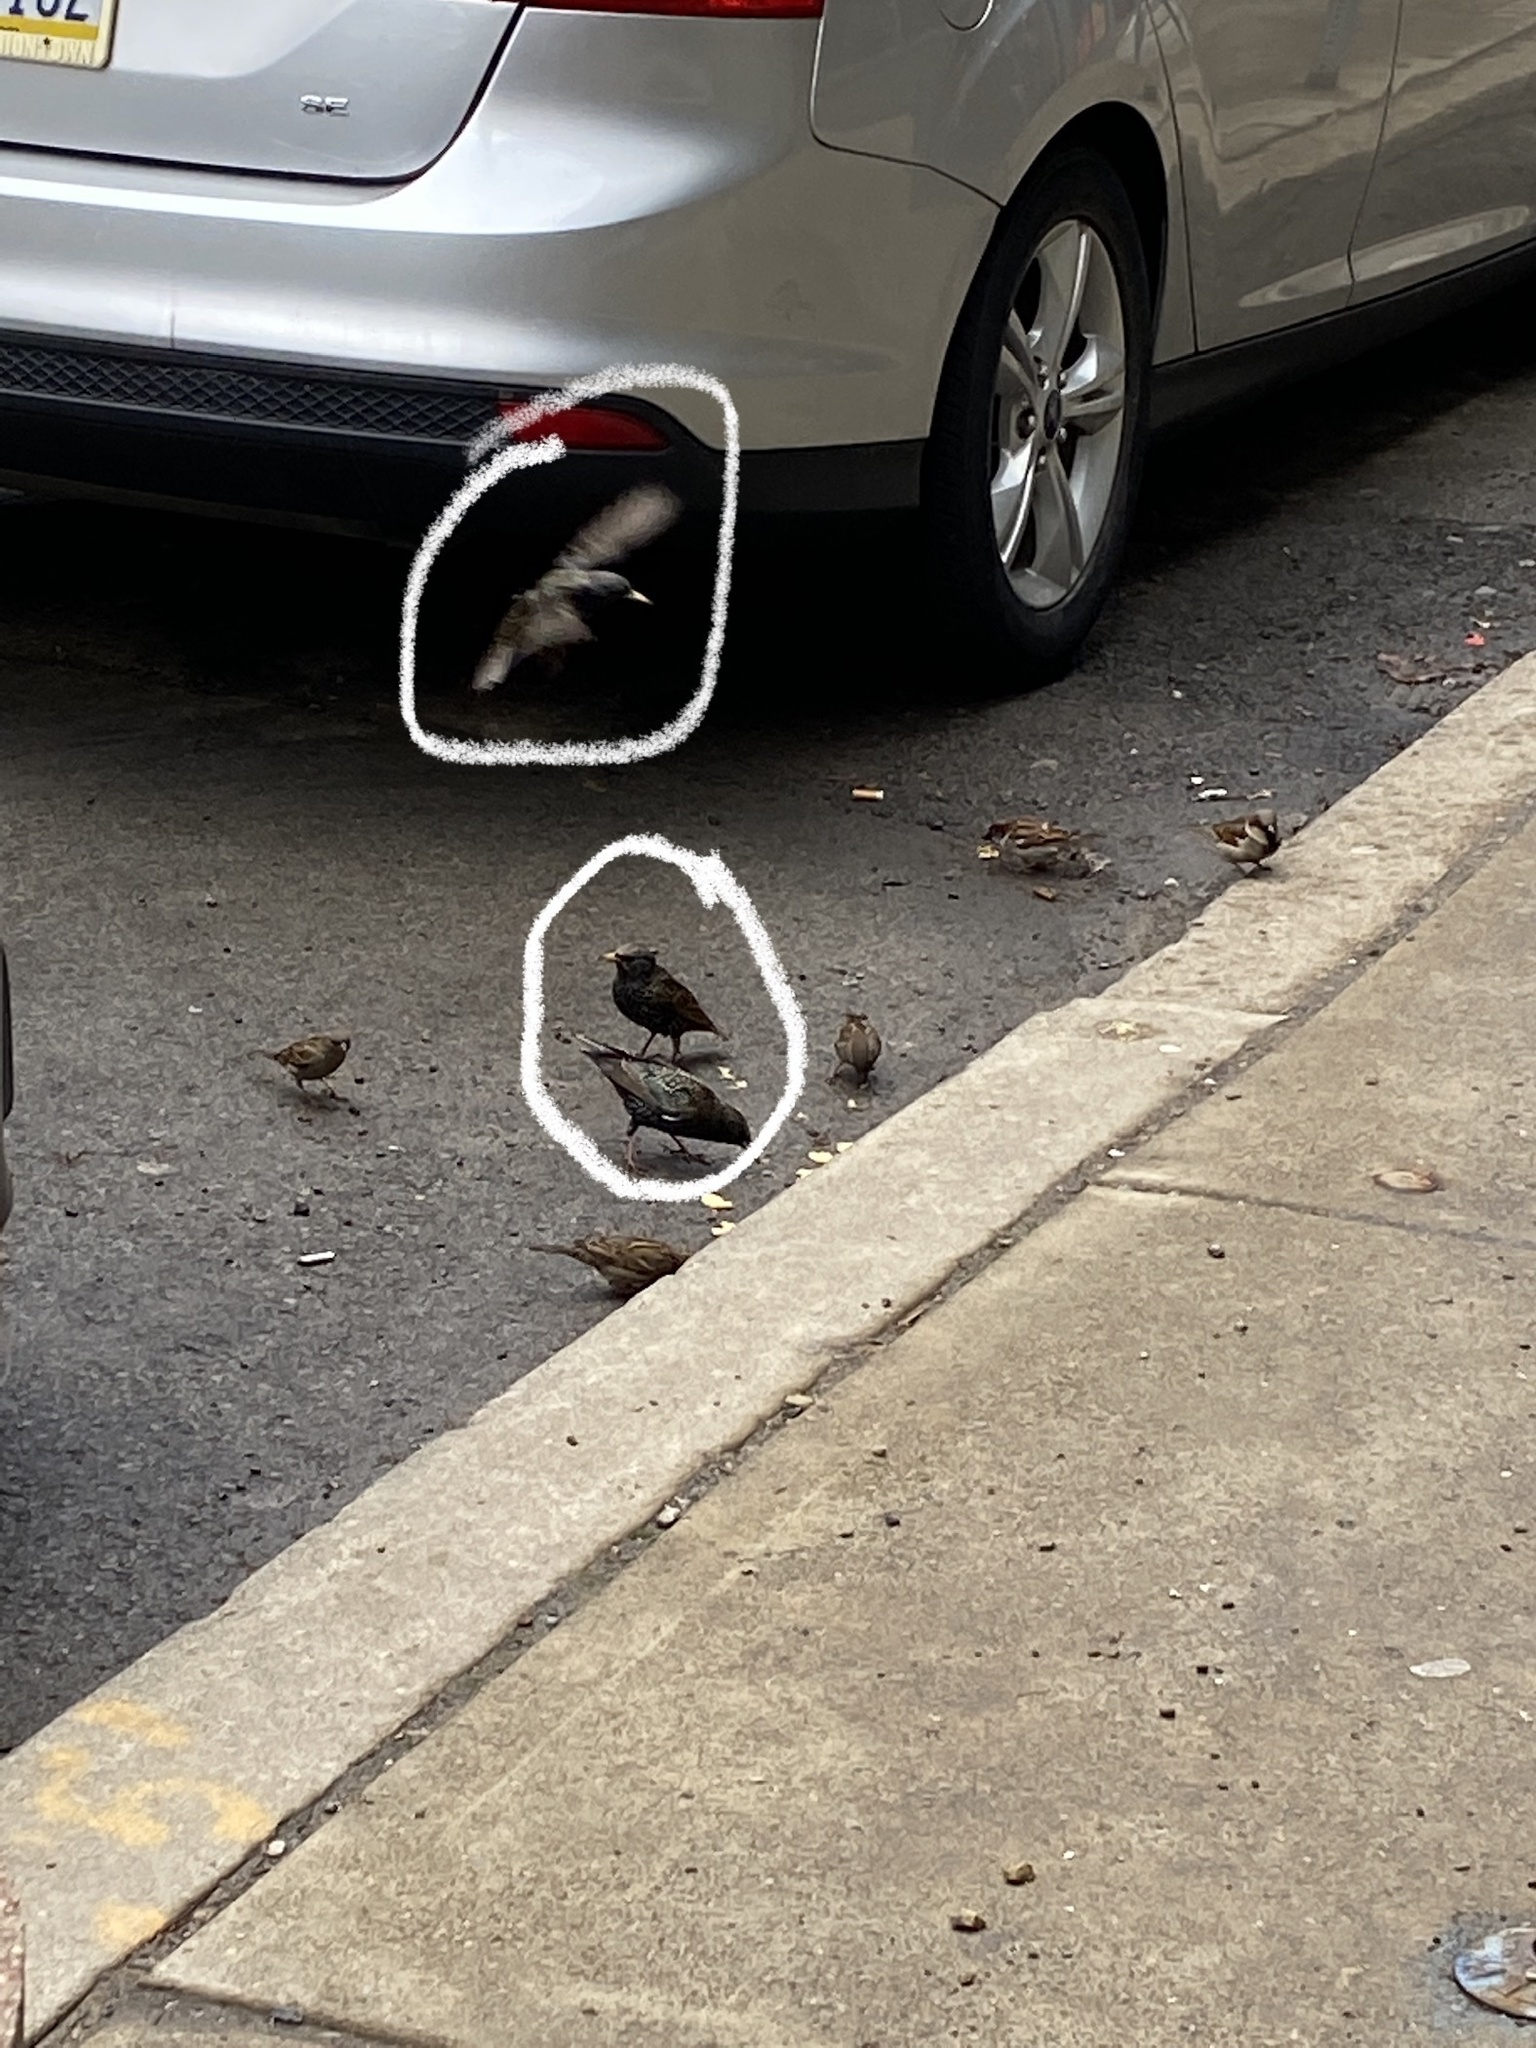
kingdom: Animalia
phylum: Chordata
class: Aves
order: Passeriformes
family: Sturnidae
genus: Sturnus
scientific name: Sturnus vulgaris
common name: Common starling
